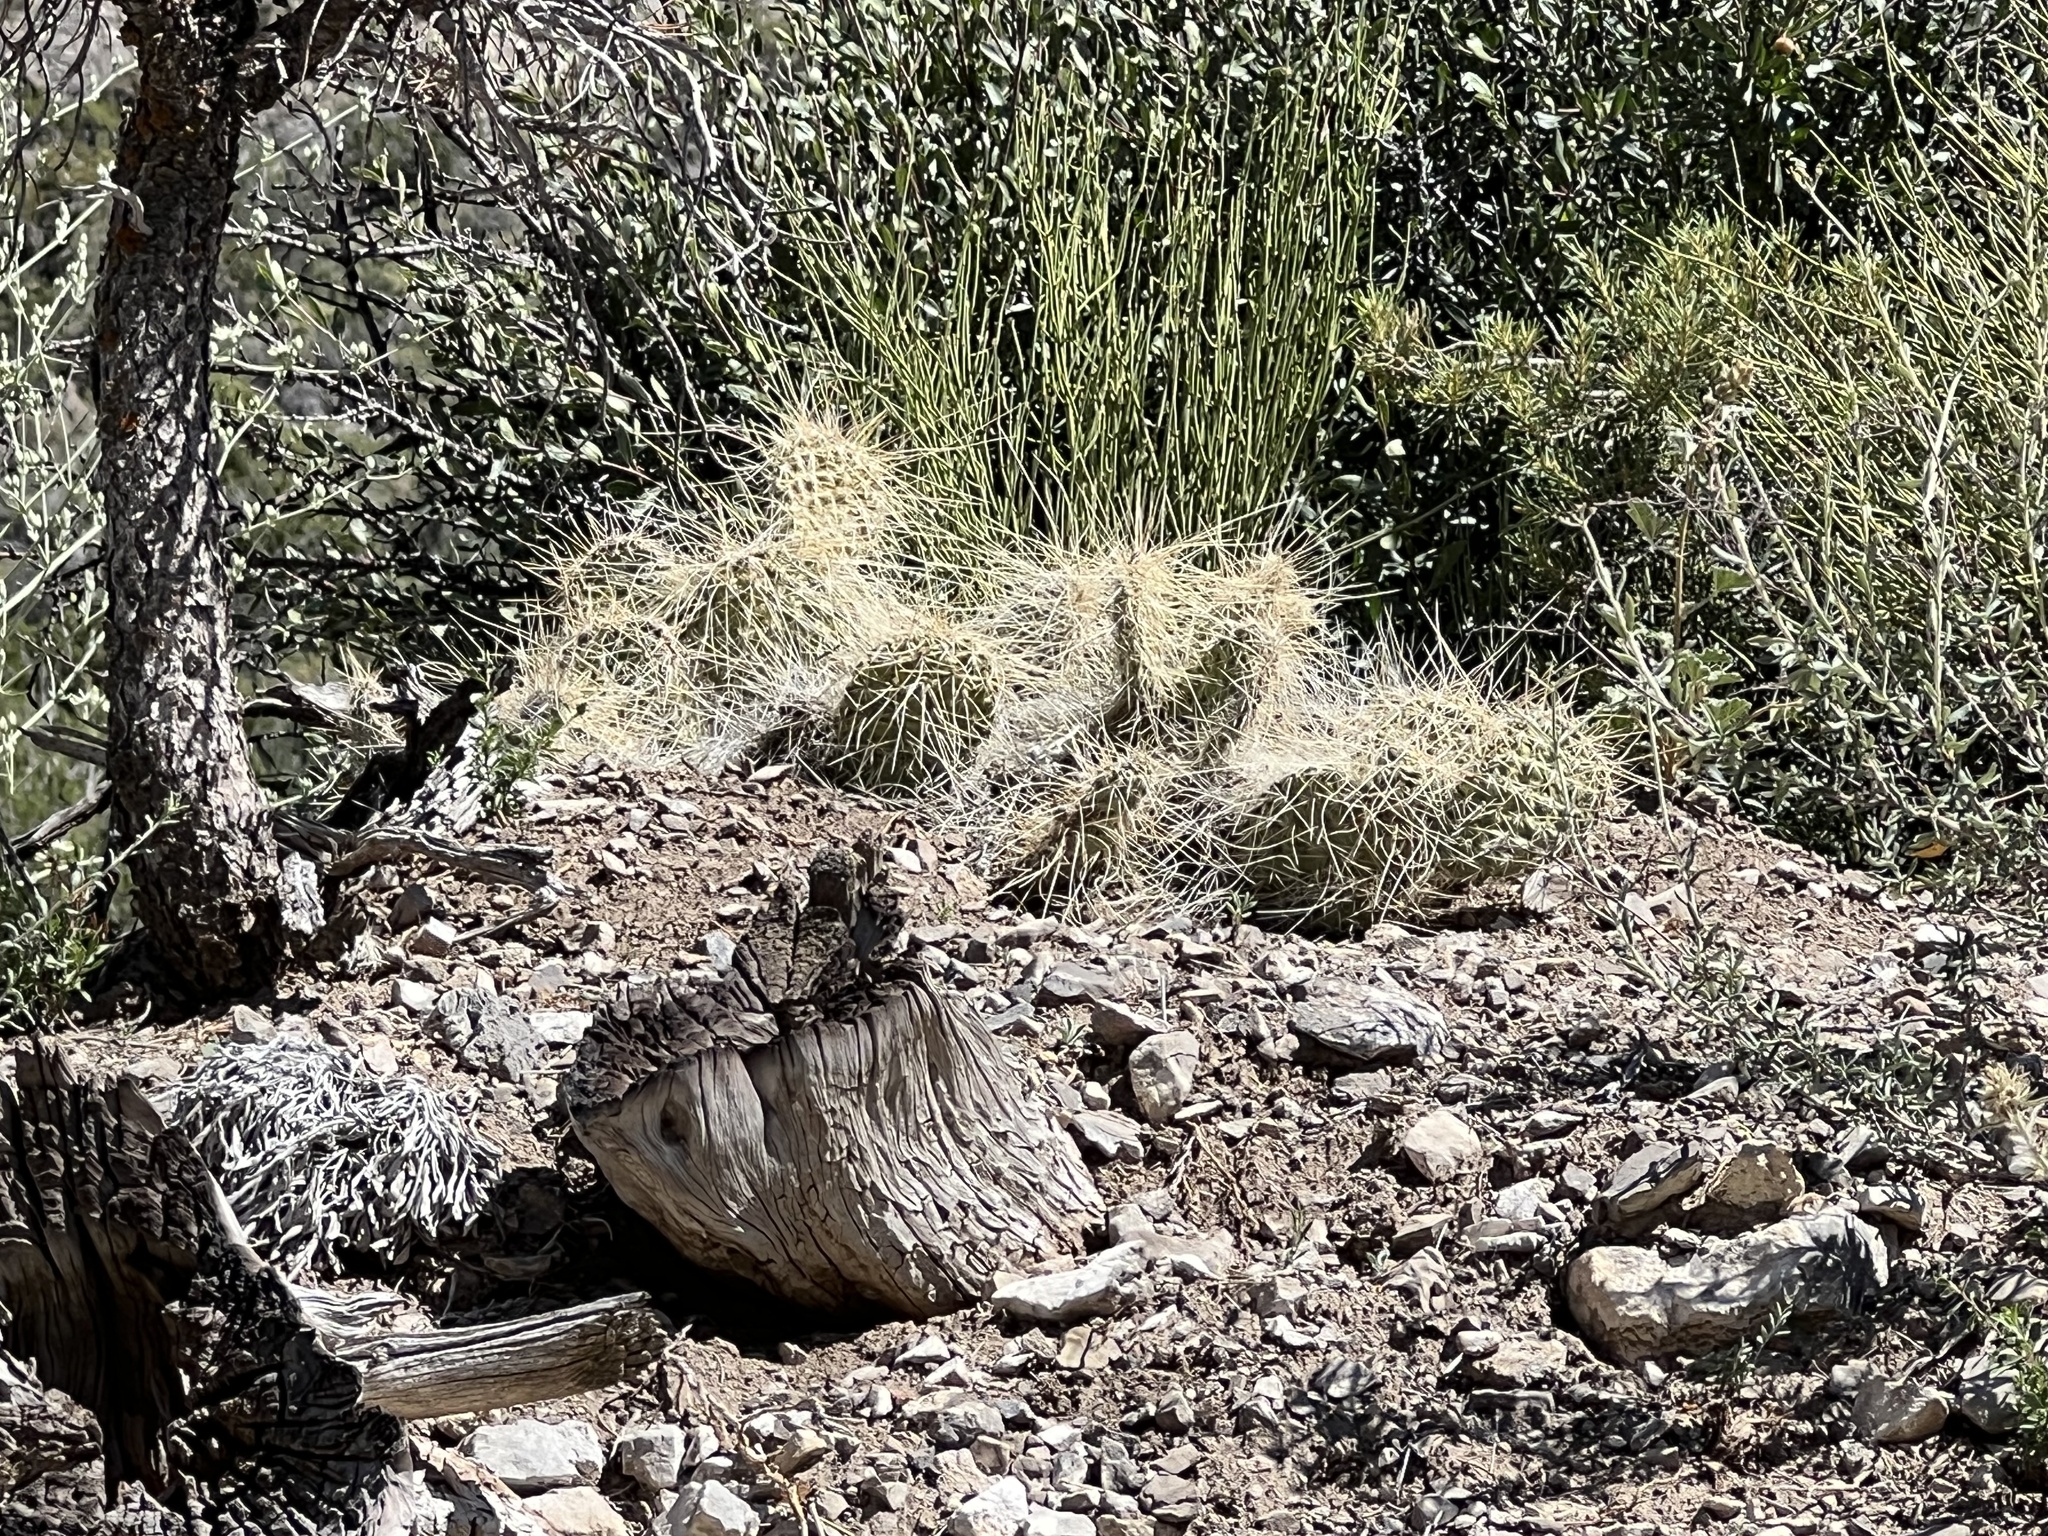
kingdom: Plantae
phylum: Tracheophyta
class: Magnoliopsida
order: Caryophyllales
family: Cactaceae
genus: Opuntia
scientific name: Opuntia polyacantha
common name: Plains prickly-pear
